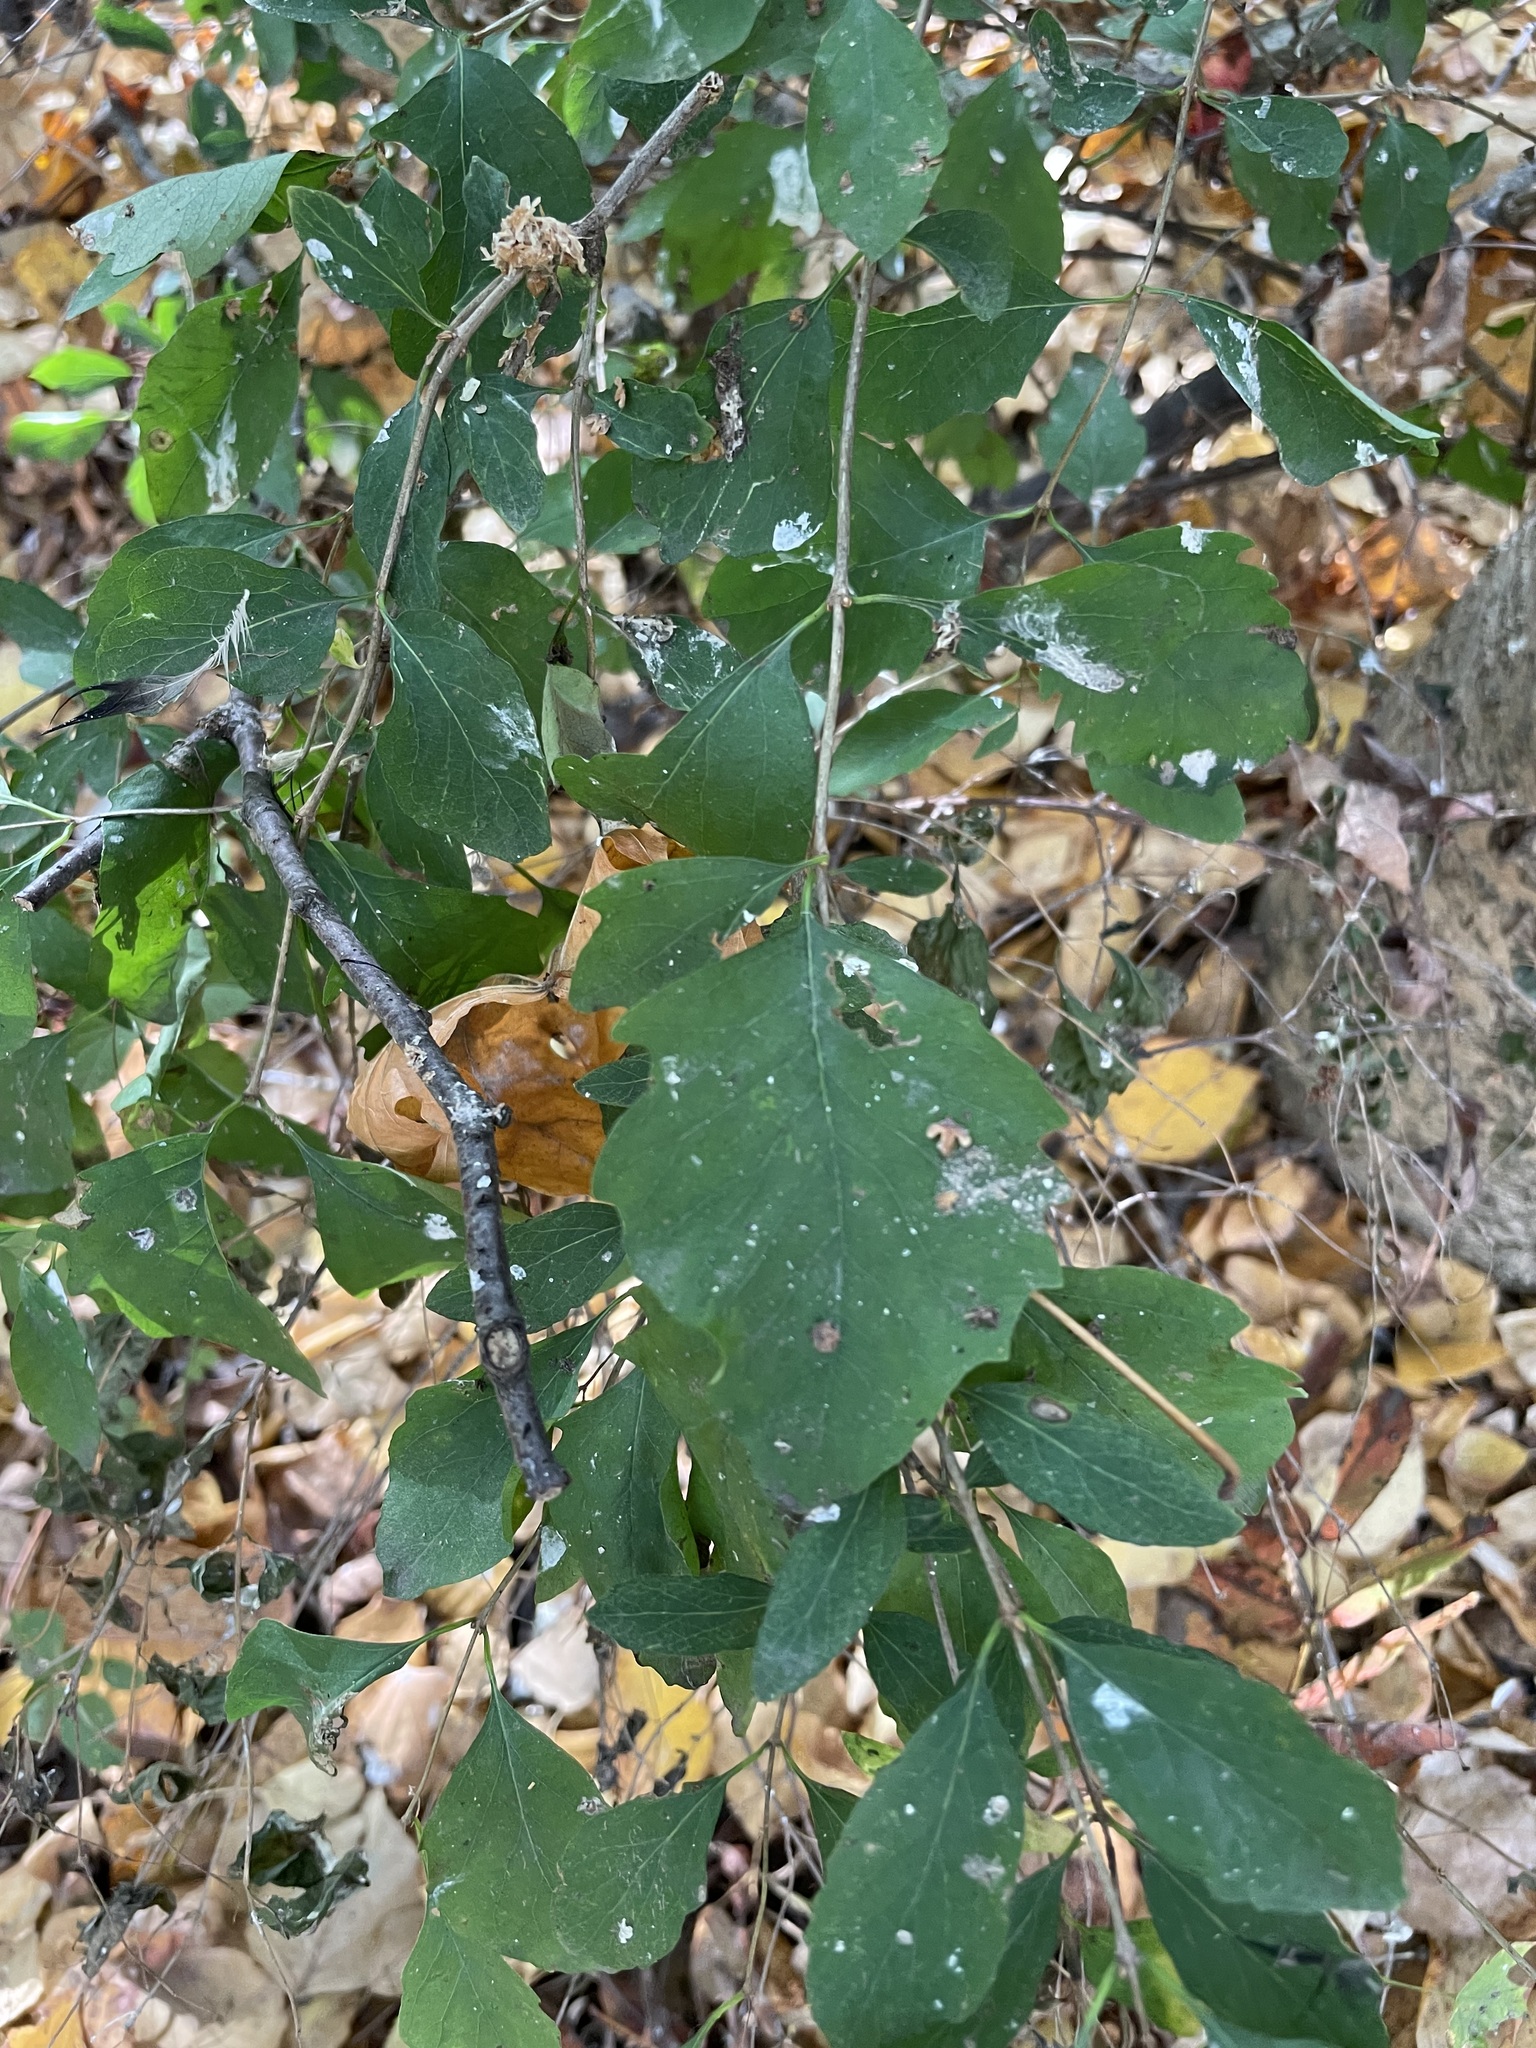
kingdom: Plantae
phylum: Tracheophyta
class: Magnoliopsida
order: Dipsacales
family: Caprifoliaceae
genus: Symphoricarpos
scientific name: Symphoricarpos albus
